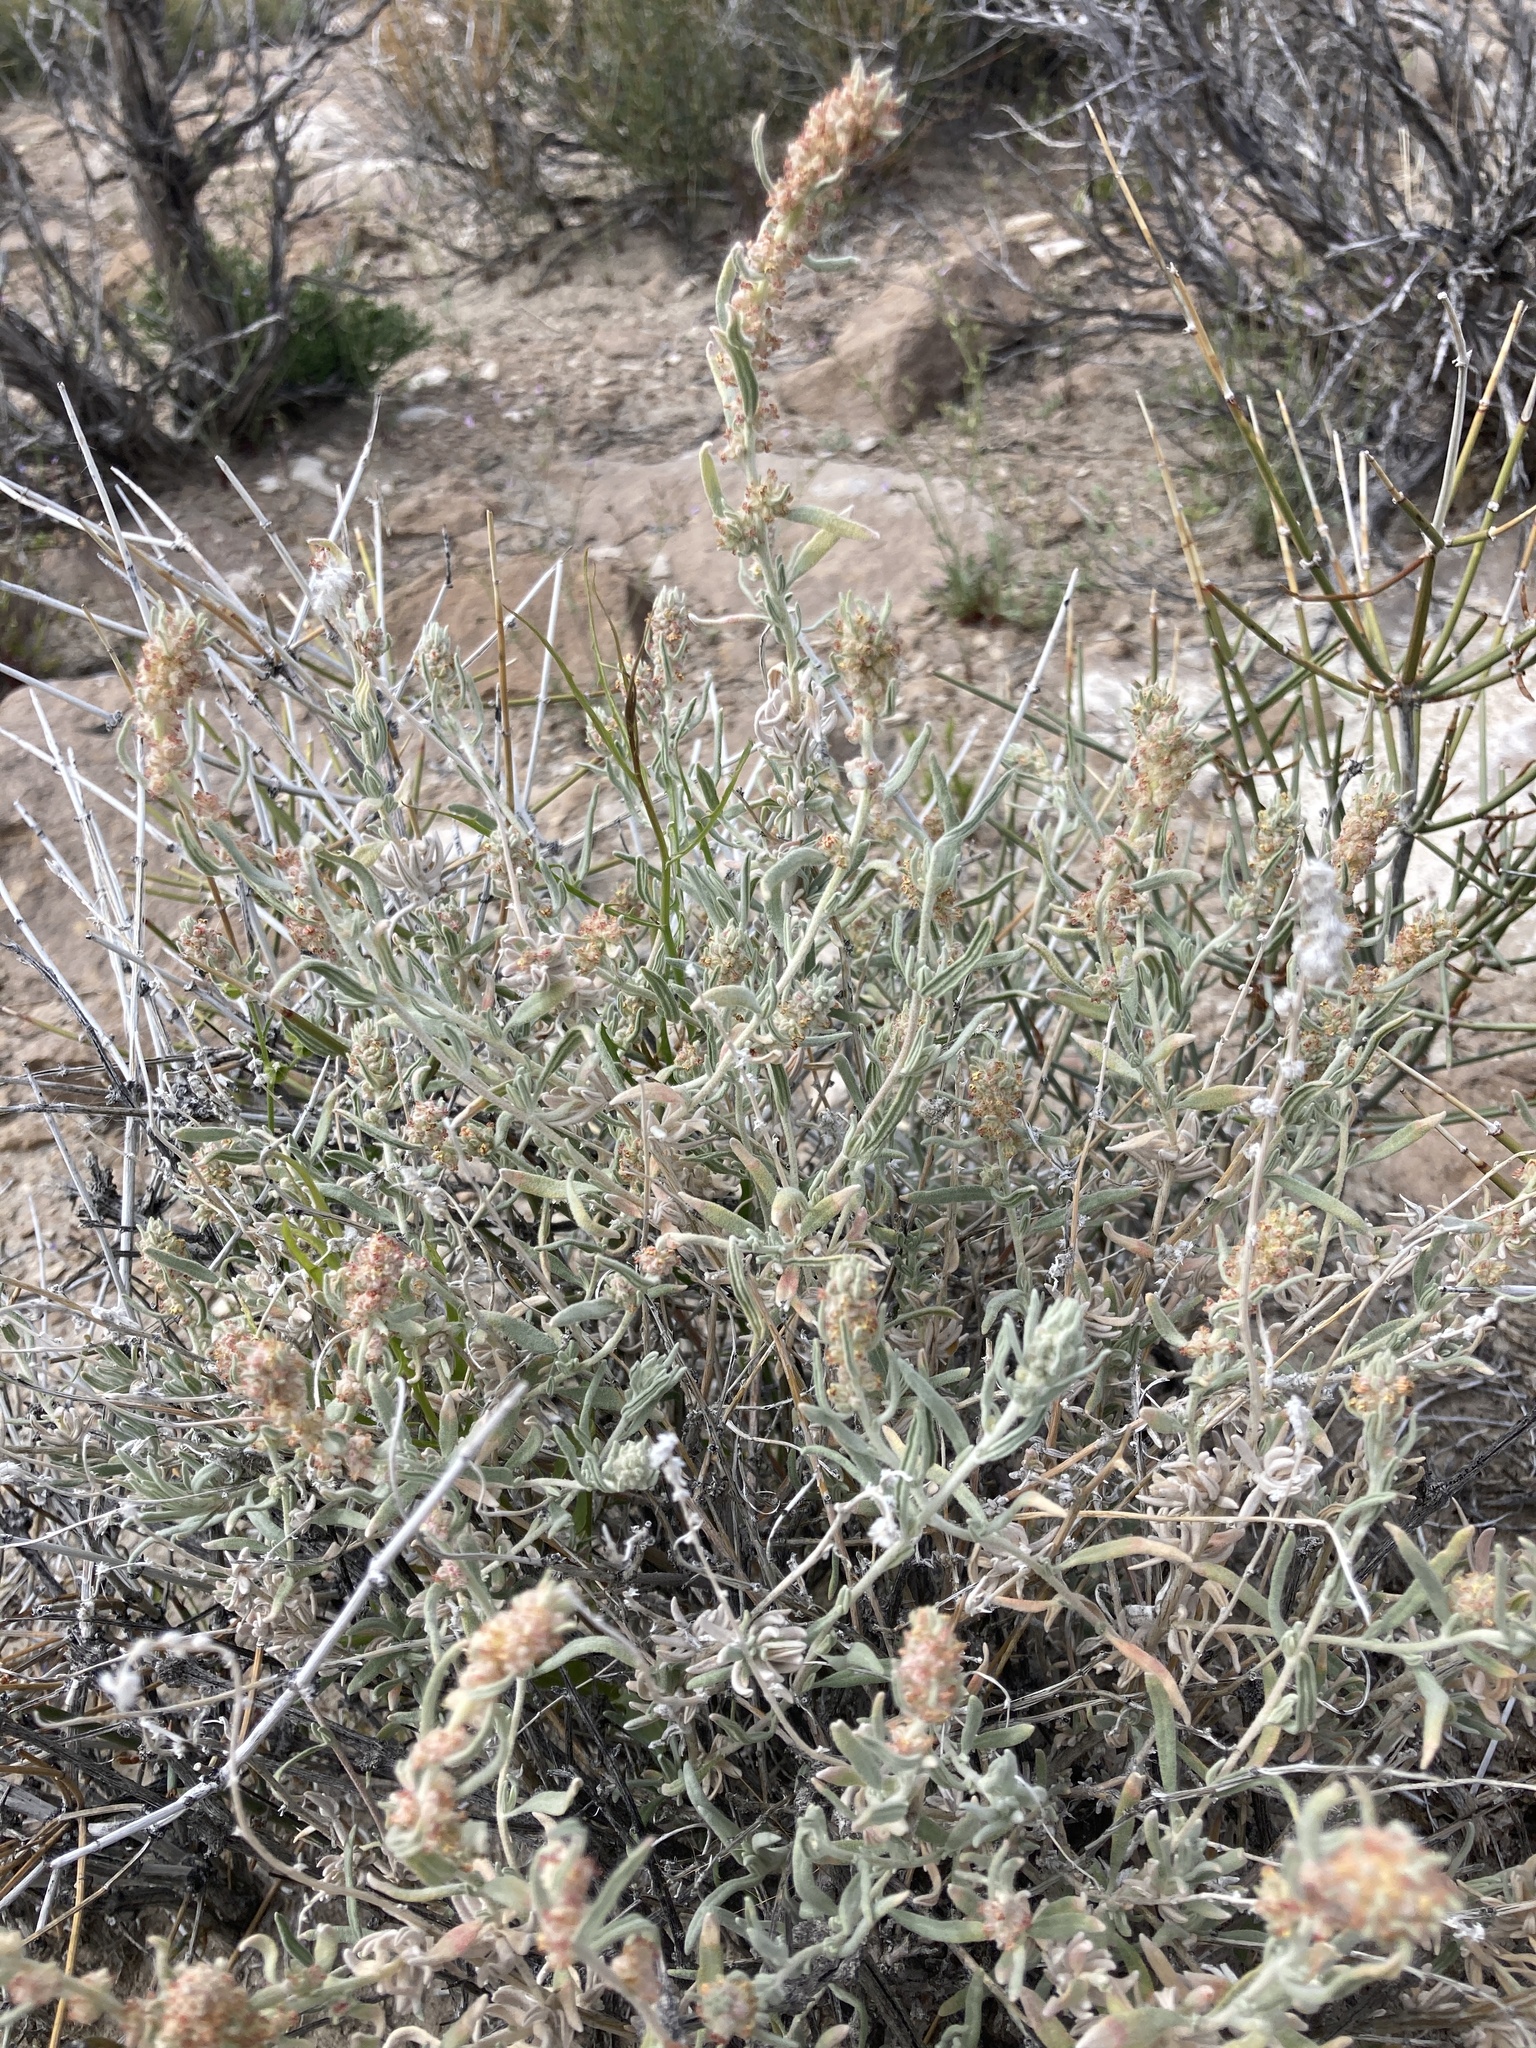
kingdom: Plantae
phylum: Tracheophyta
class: Magnoliopsida
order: Caryophyllales
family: Amaranthaceae
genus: Krascheninnikovia
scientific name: Krascheninnikovia lanata
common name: Winterfat
